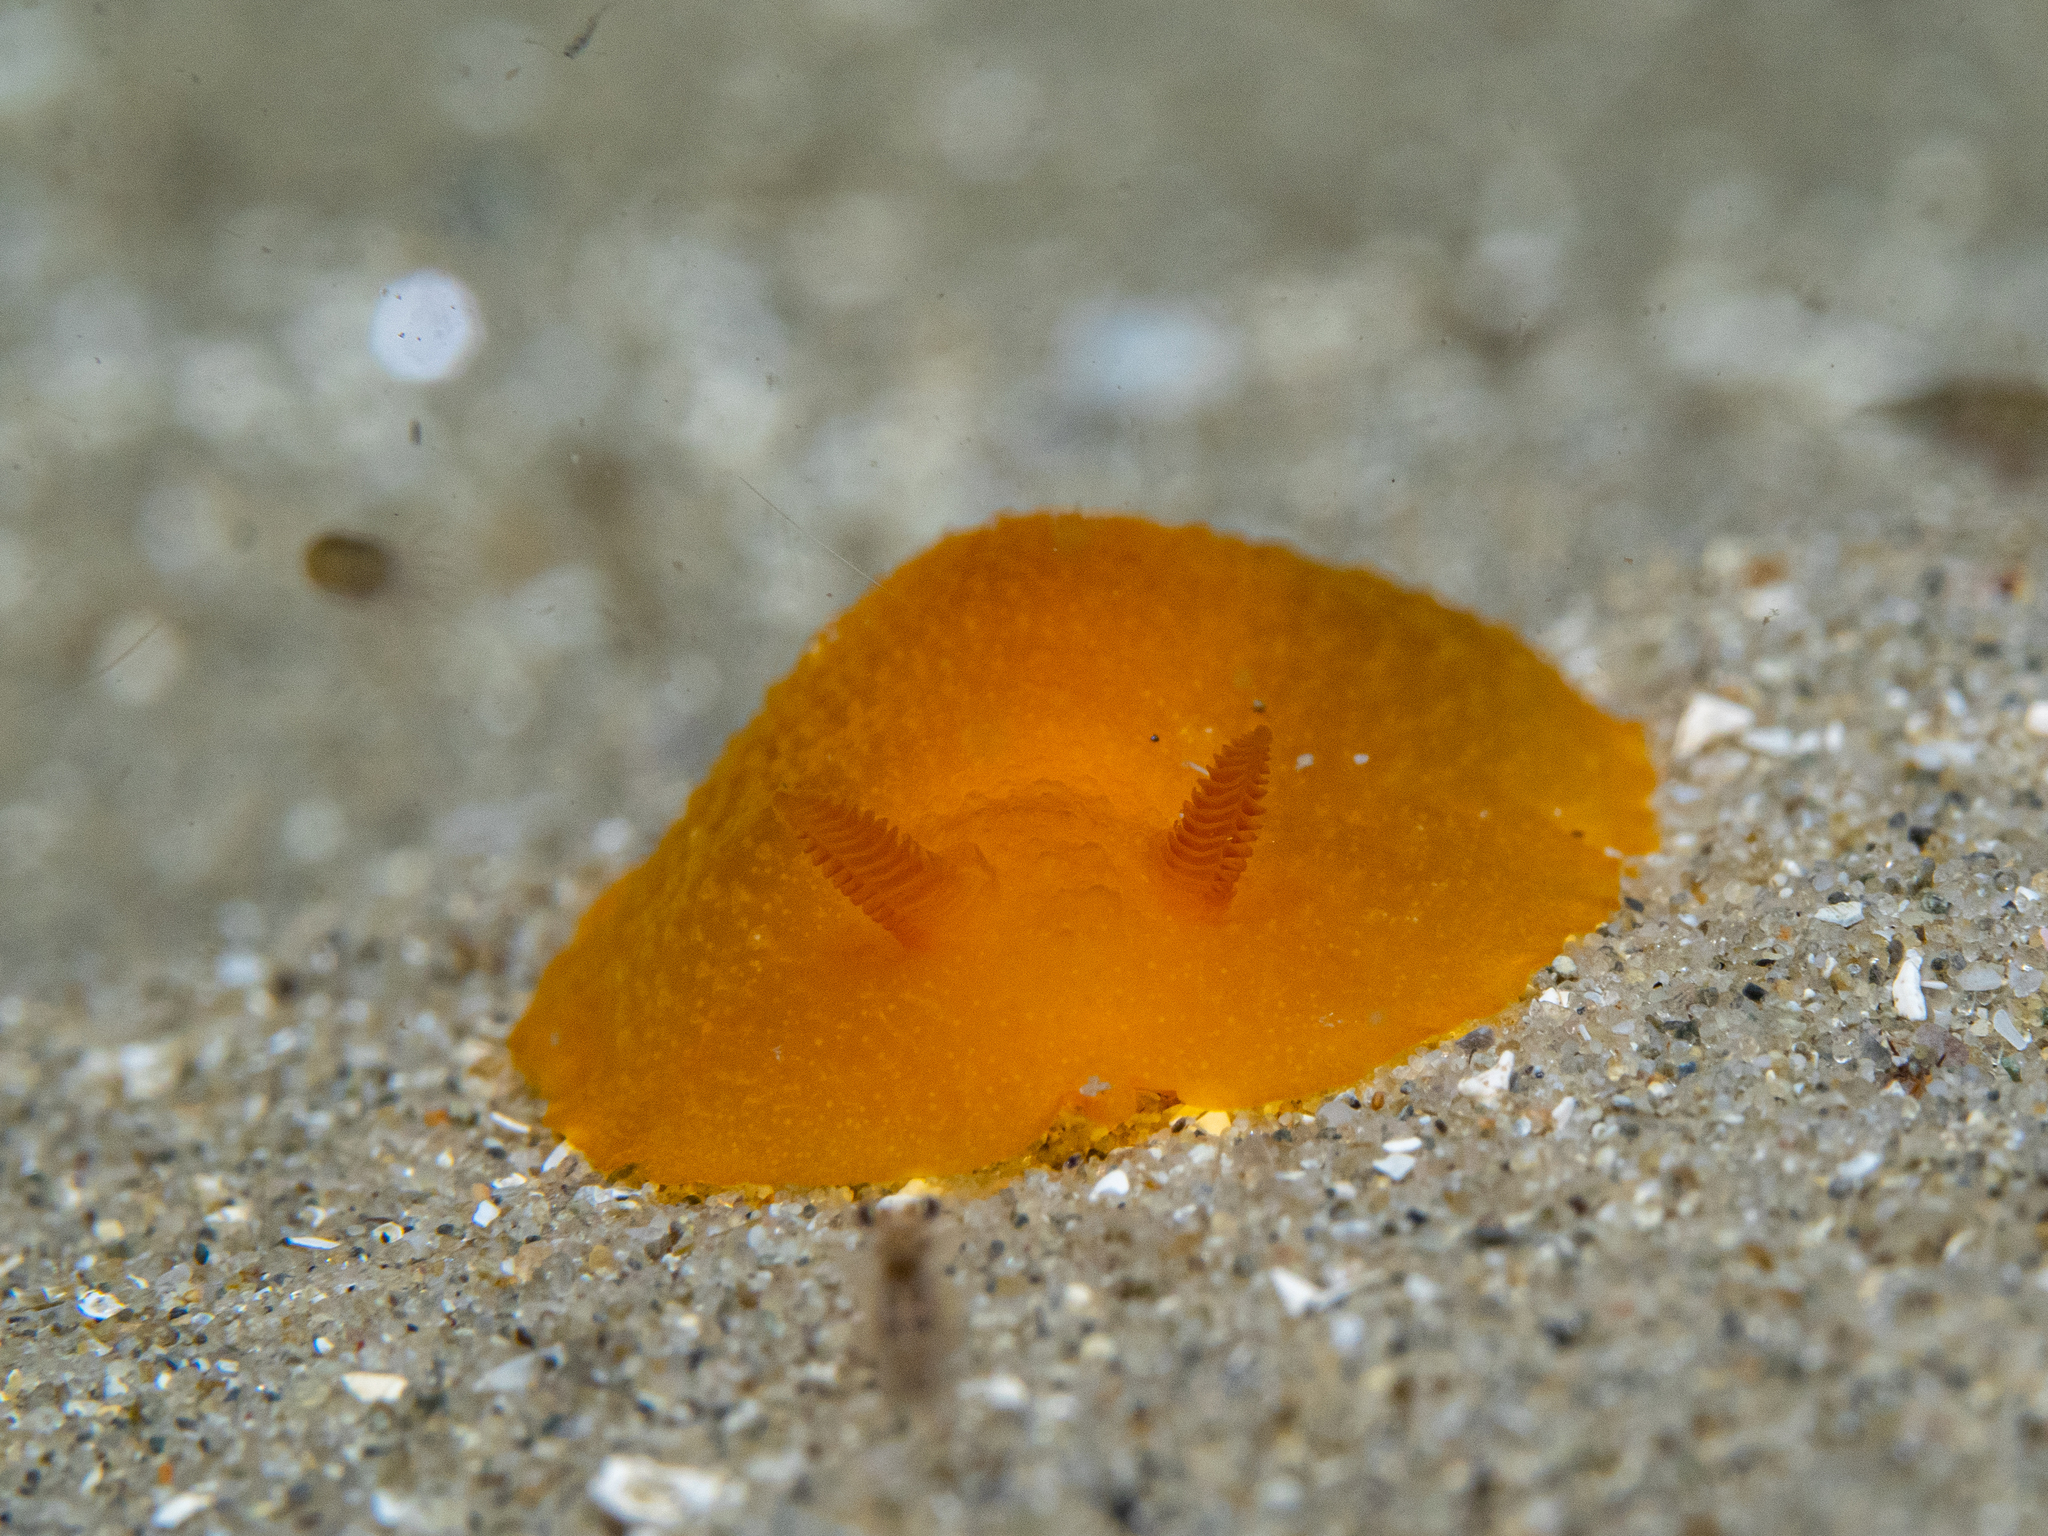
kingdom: Animalia
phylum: Mollusca
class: Gastropoda
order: Nudibranchia
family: Dendrodorididae
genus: Doriopsilla
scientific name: Doriopsilla carneola
